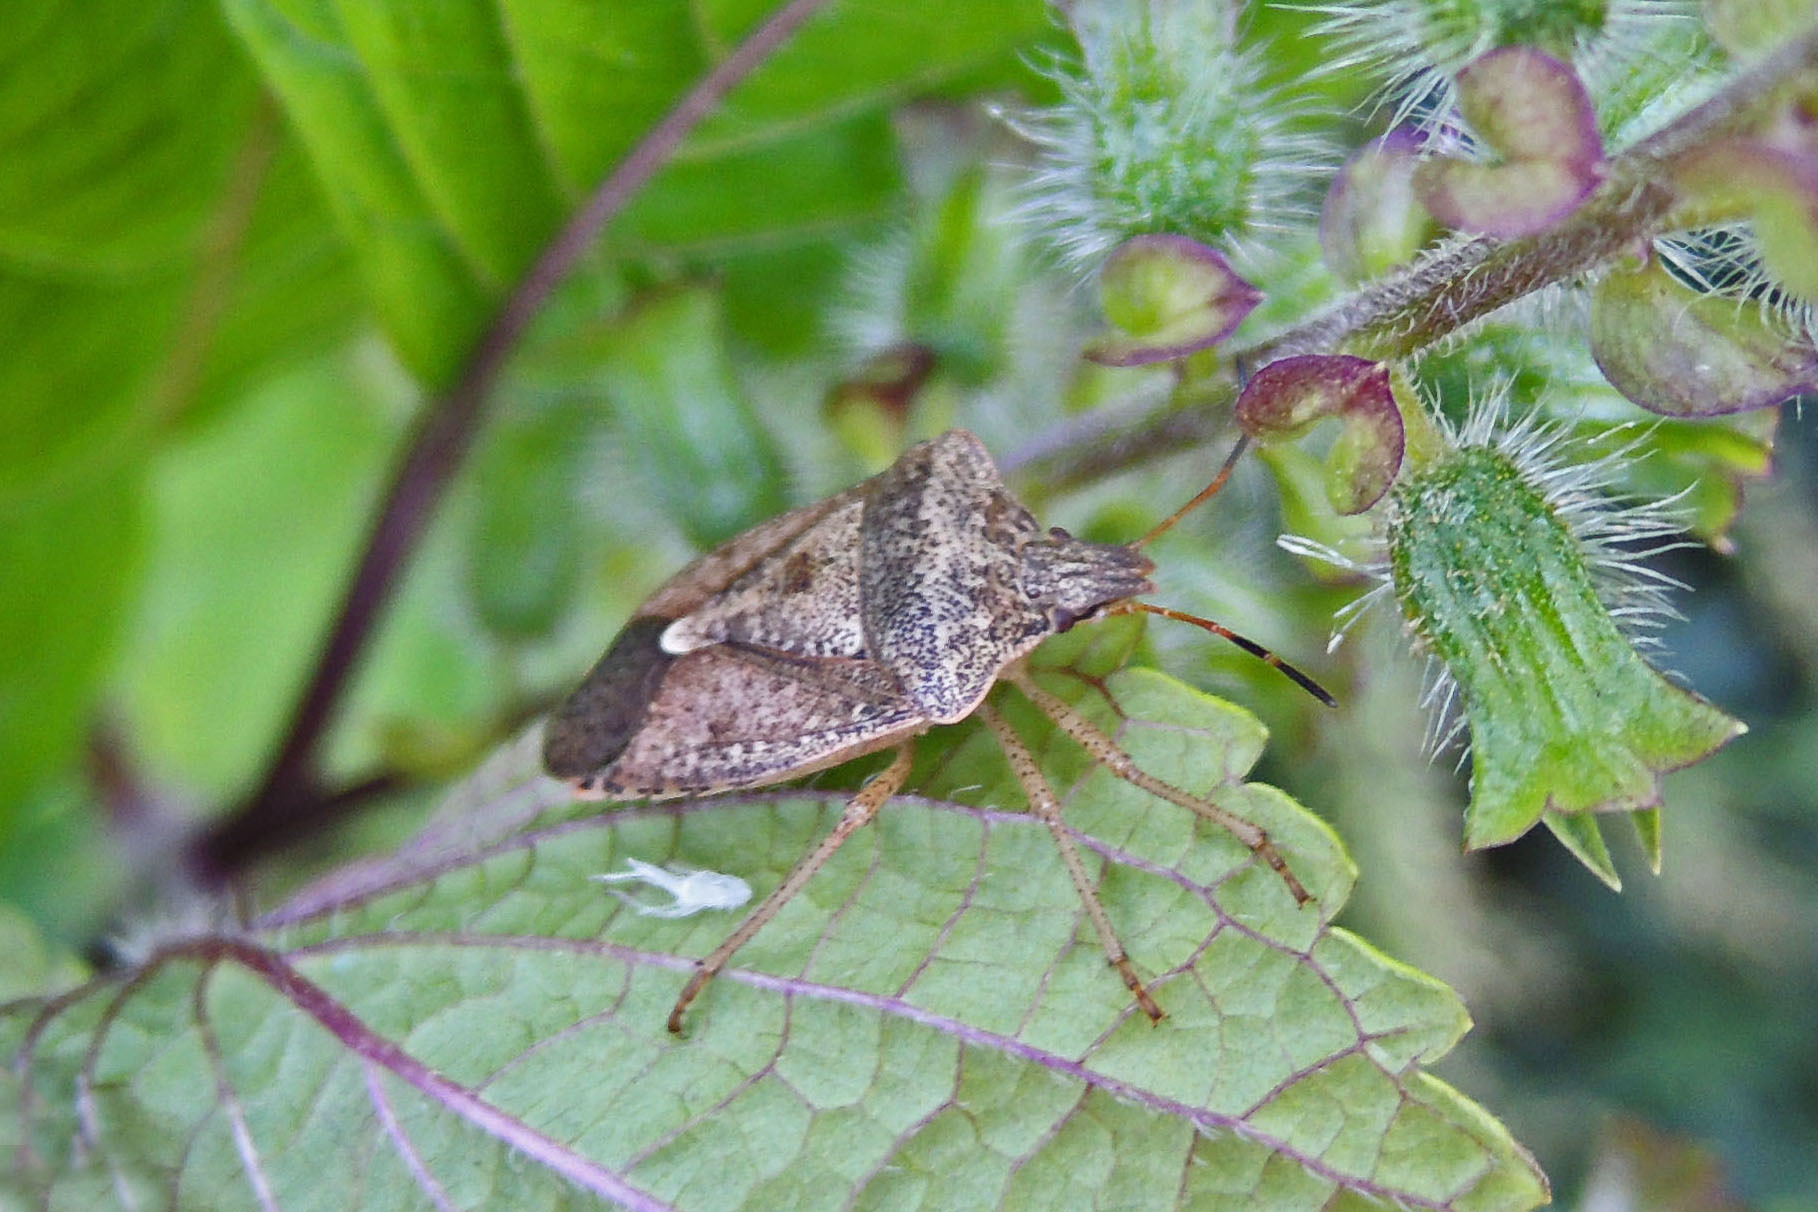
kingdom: Animalia
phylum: Arthropoda
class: Insecta
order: Hemiptera
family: Pentatomidae
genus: Euschistus
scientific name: Euschistus servus
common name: Brown stink bug
